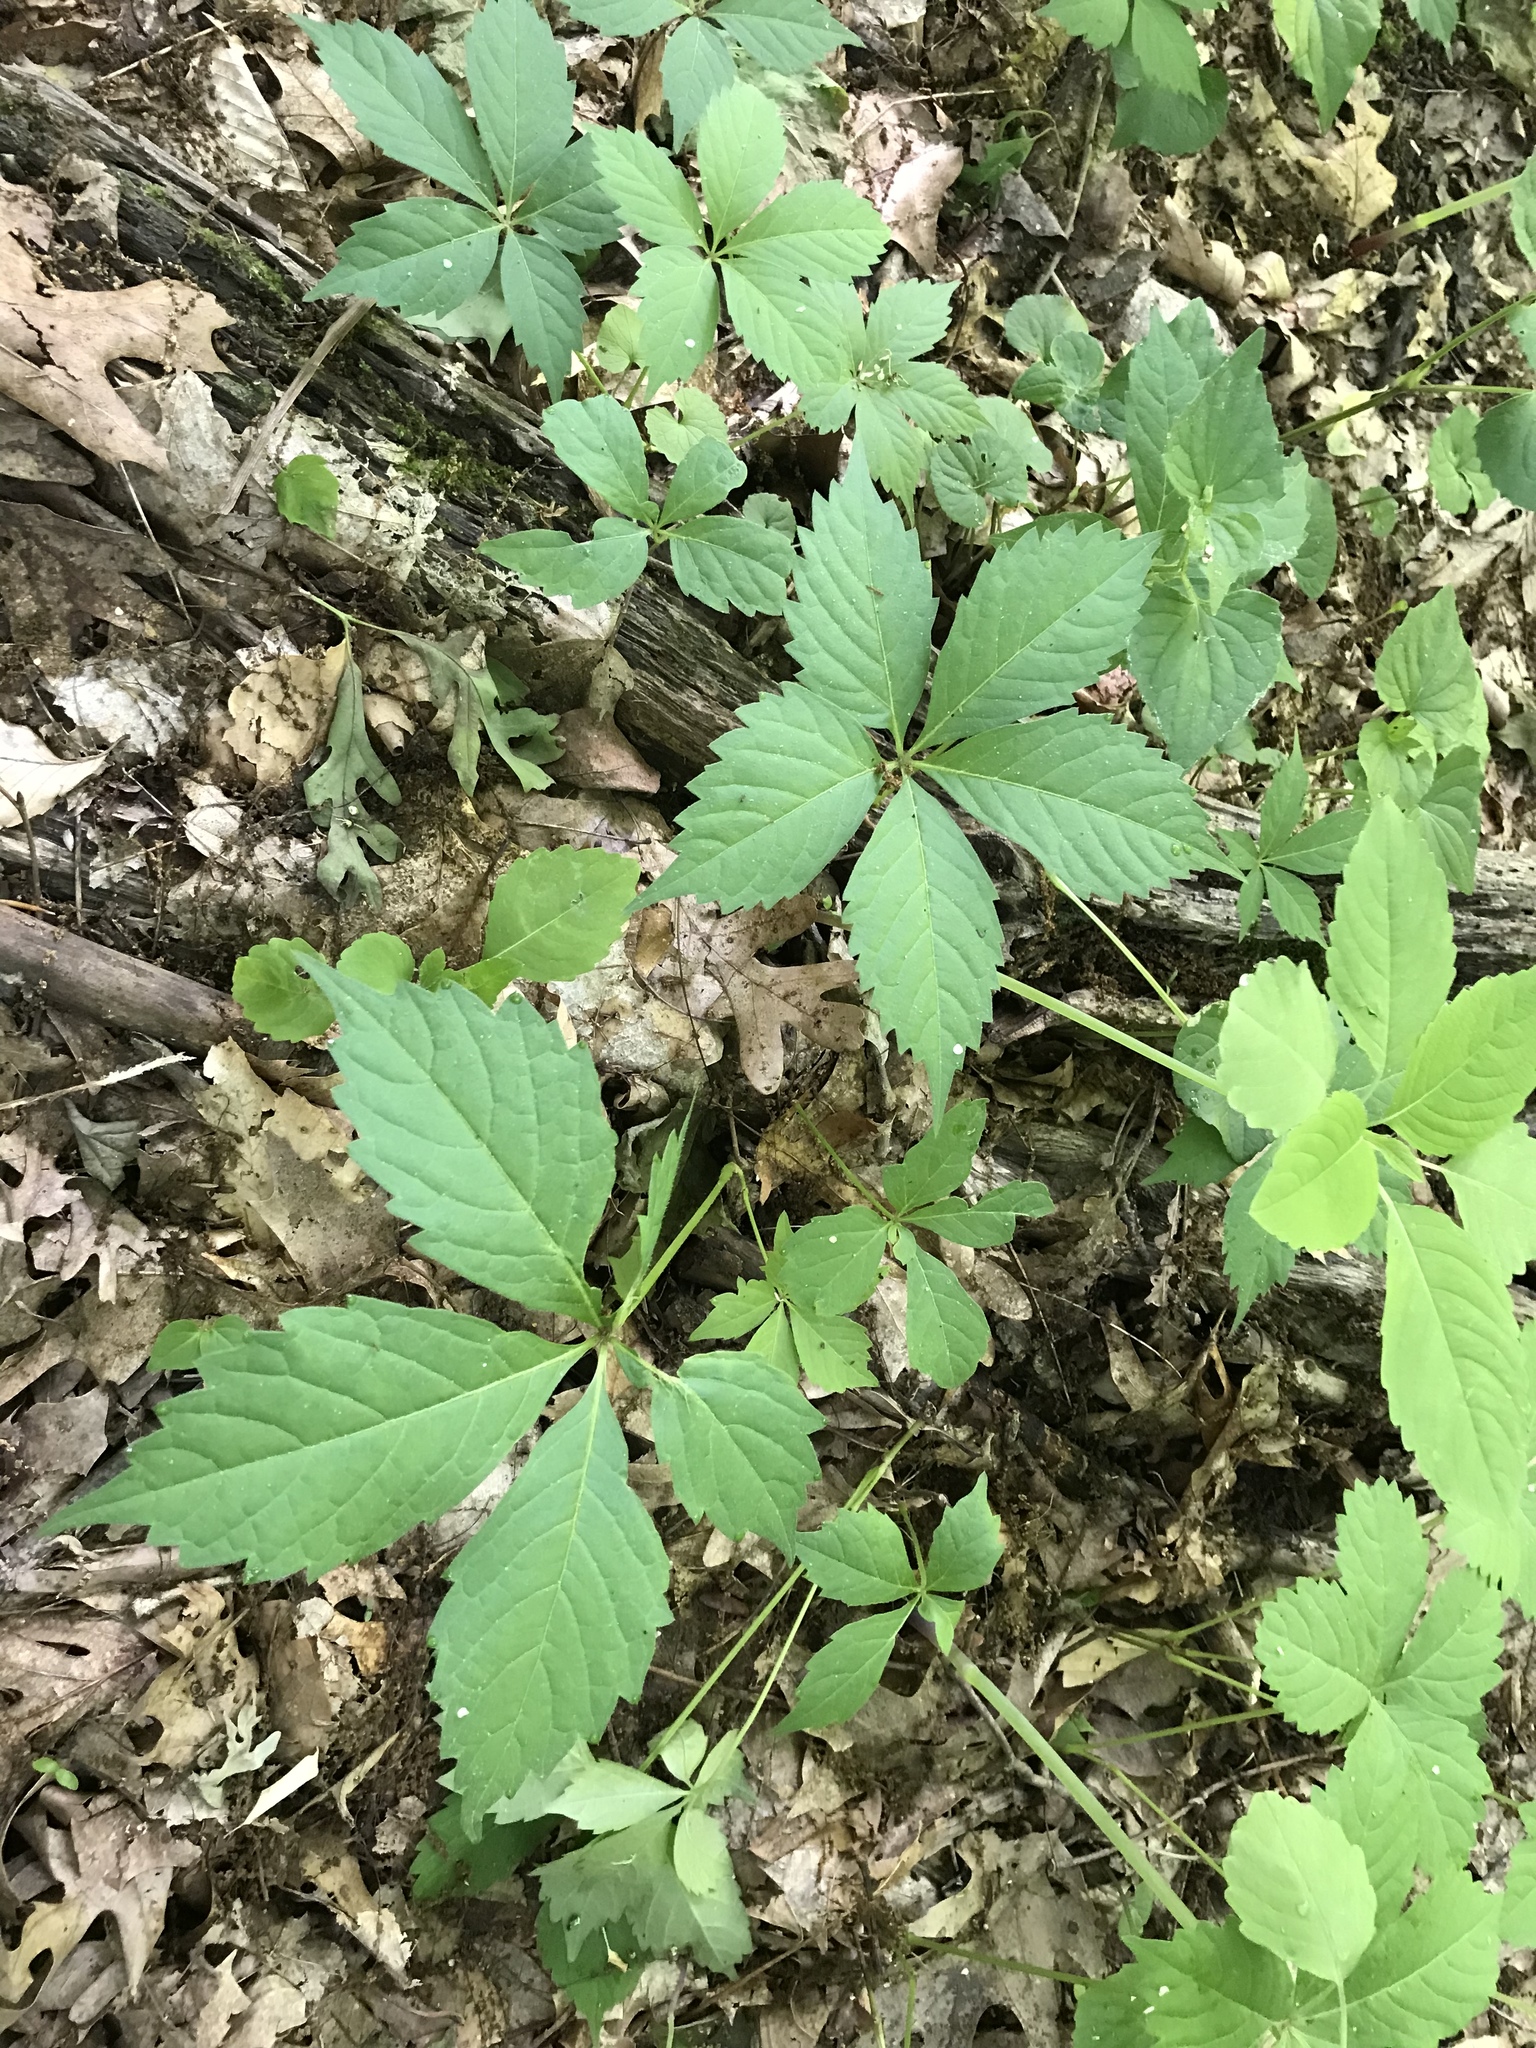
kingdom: Plantae
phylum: Tracheophyta
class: Magnoliopsida
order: Vitales
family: Vitaceae
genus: Parthenocissus
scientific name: Parthenocissus quinquefolia
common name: Virginia-creeper
